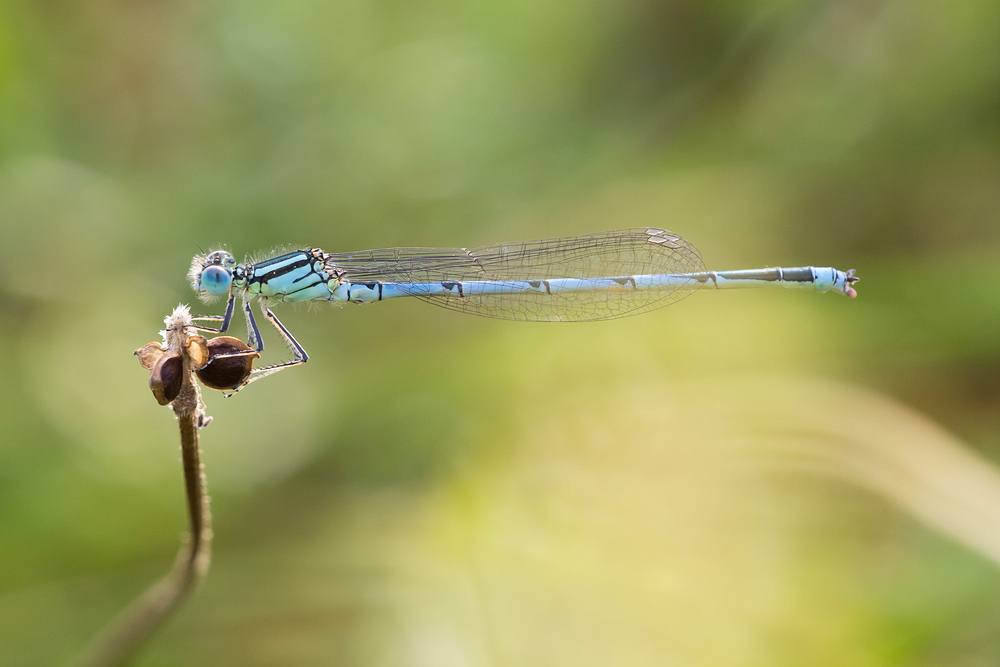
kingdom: Animalia
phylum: Arthropoda
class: Insecta
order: Odonata
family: Coenagrionidae
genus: Erythromma
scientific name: Erythromma lindenii
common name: Blue-eye
